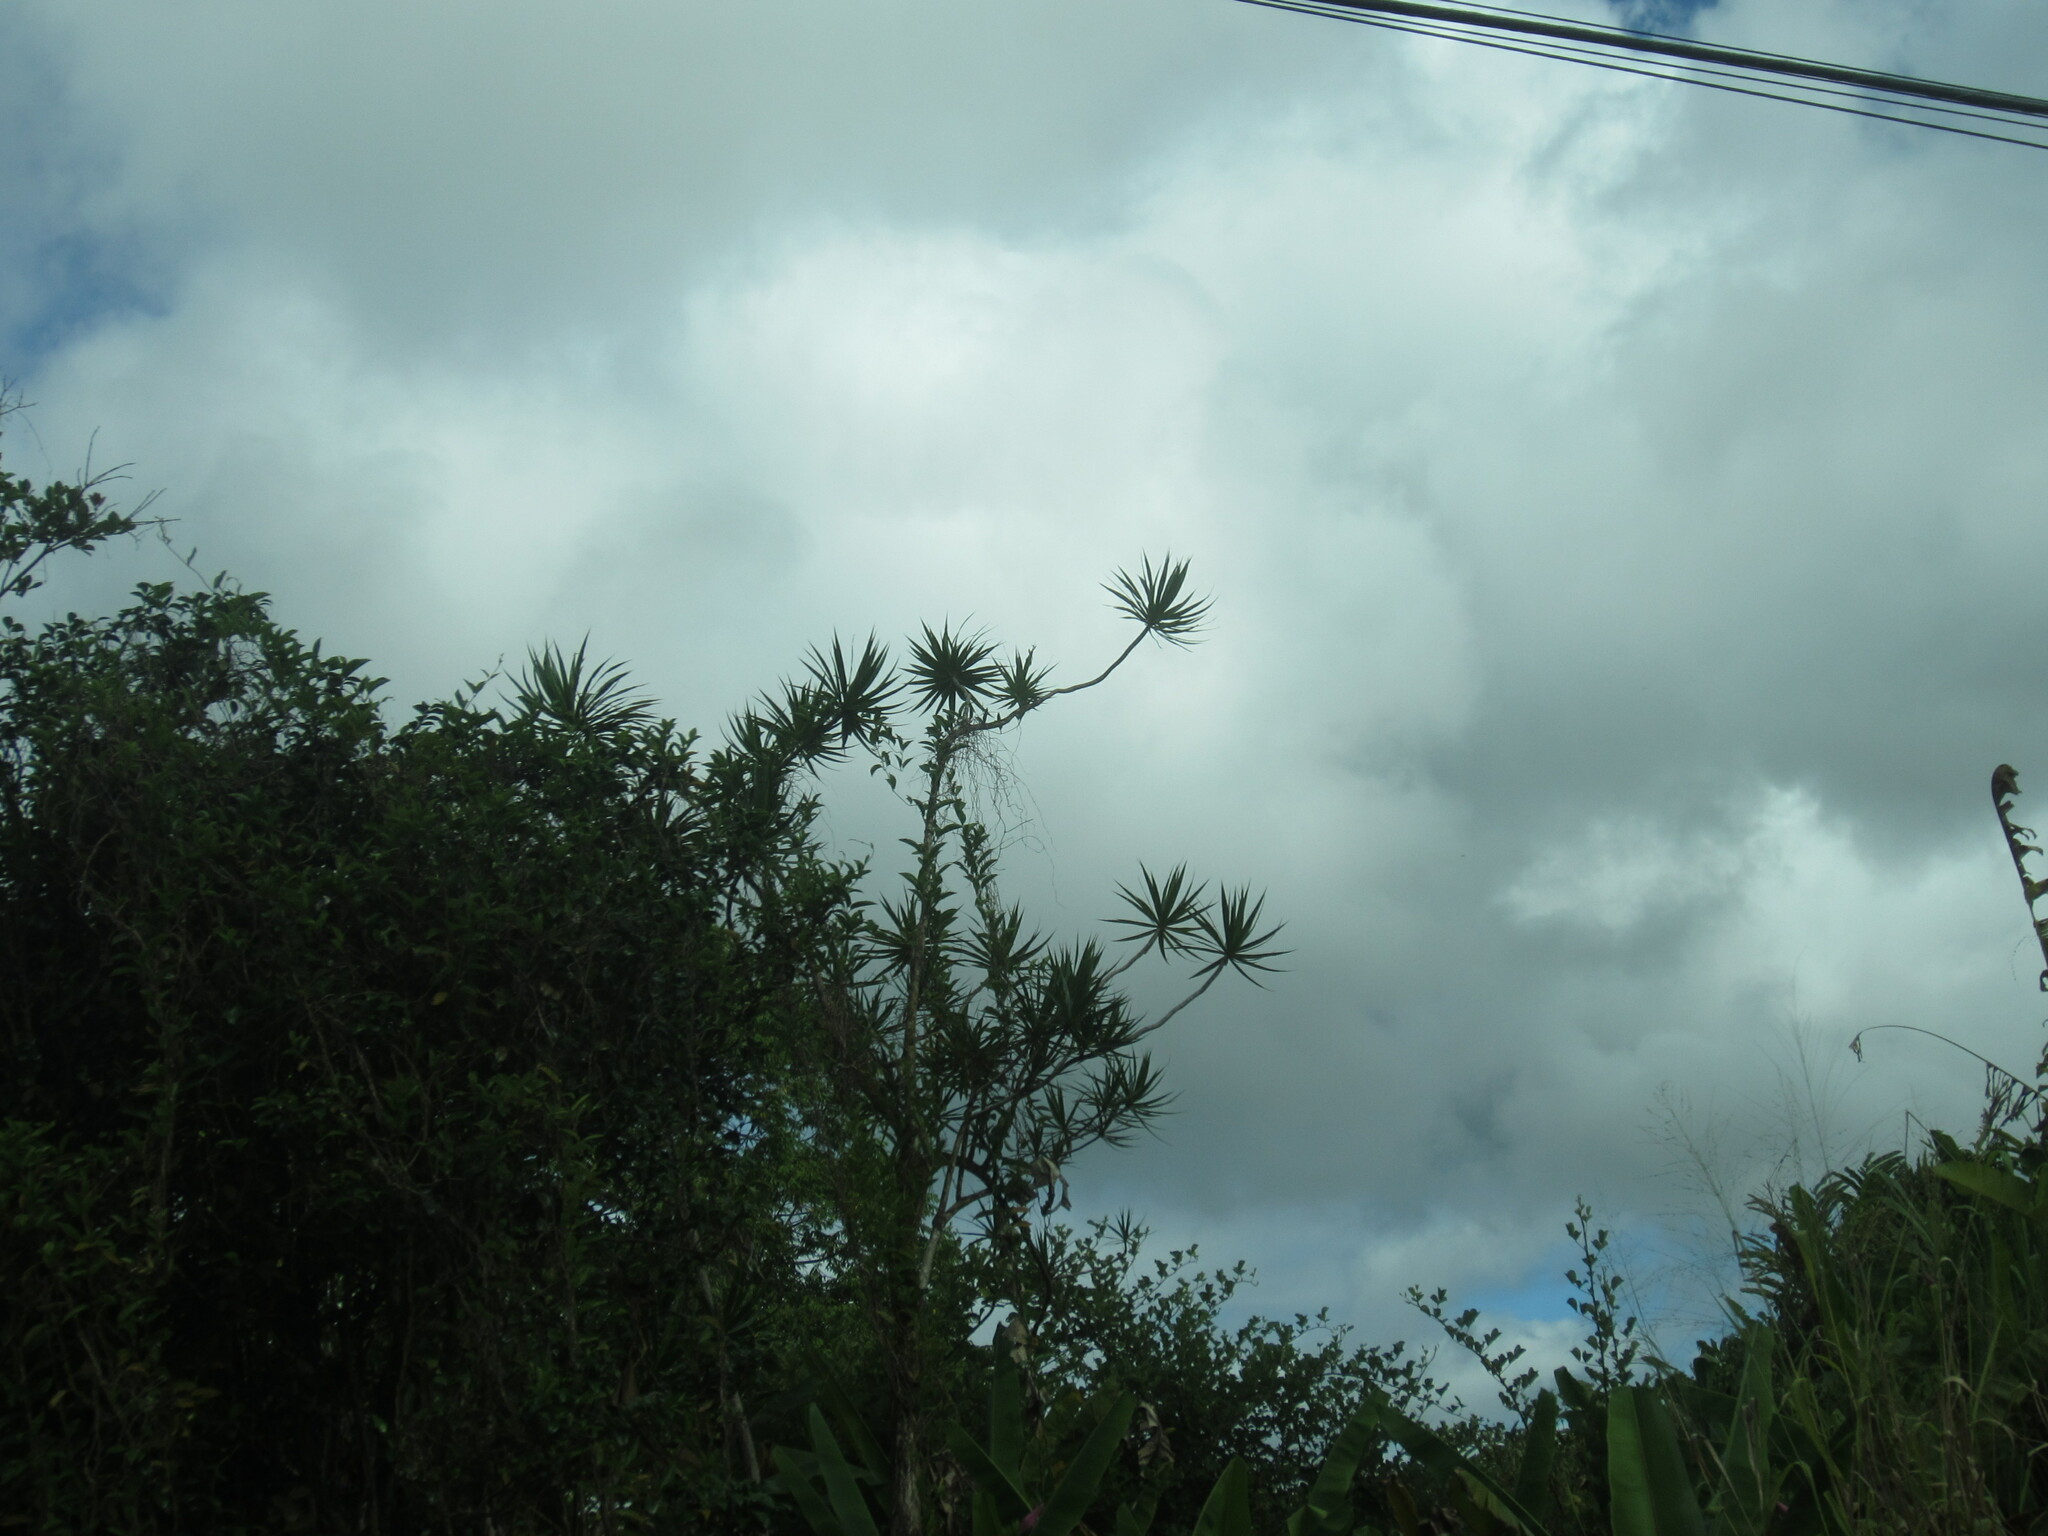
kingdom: Plantae
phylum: Tracheophyta
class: Liliopsida
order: Asparagales
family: Asparagaceae
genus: Dracaena
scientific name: Dracaena reflexa
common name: Song-of-india
